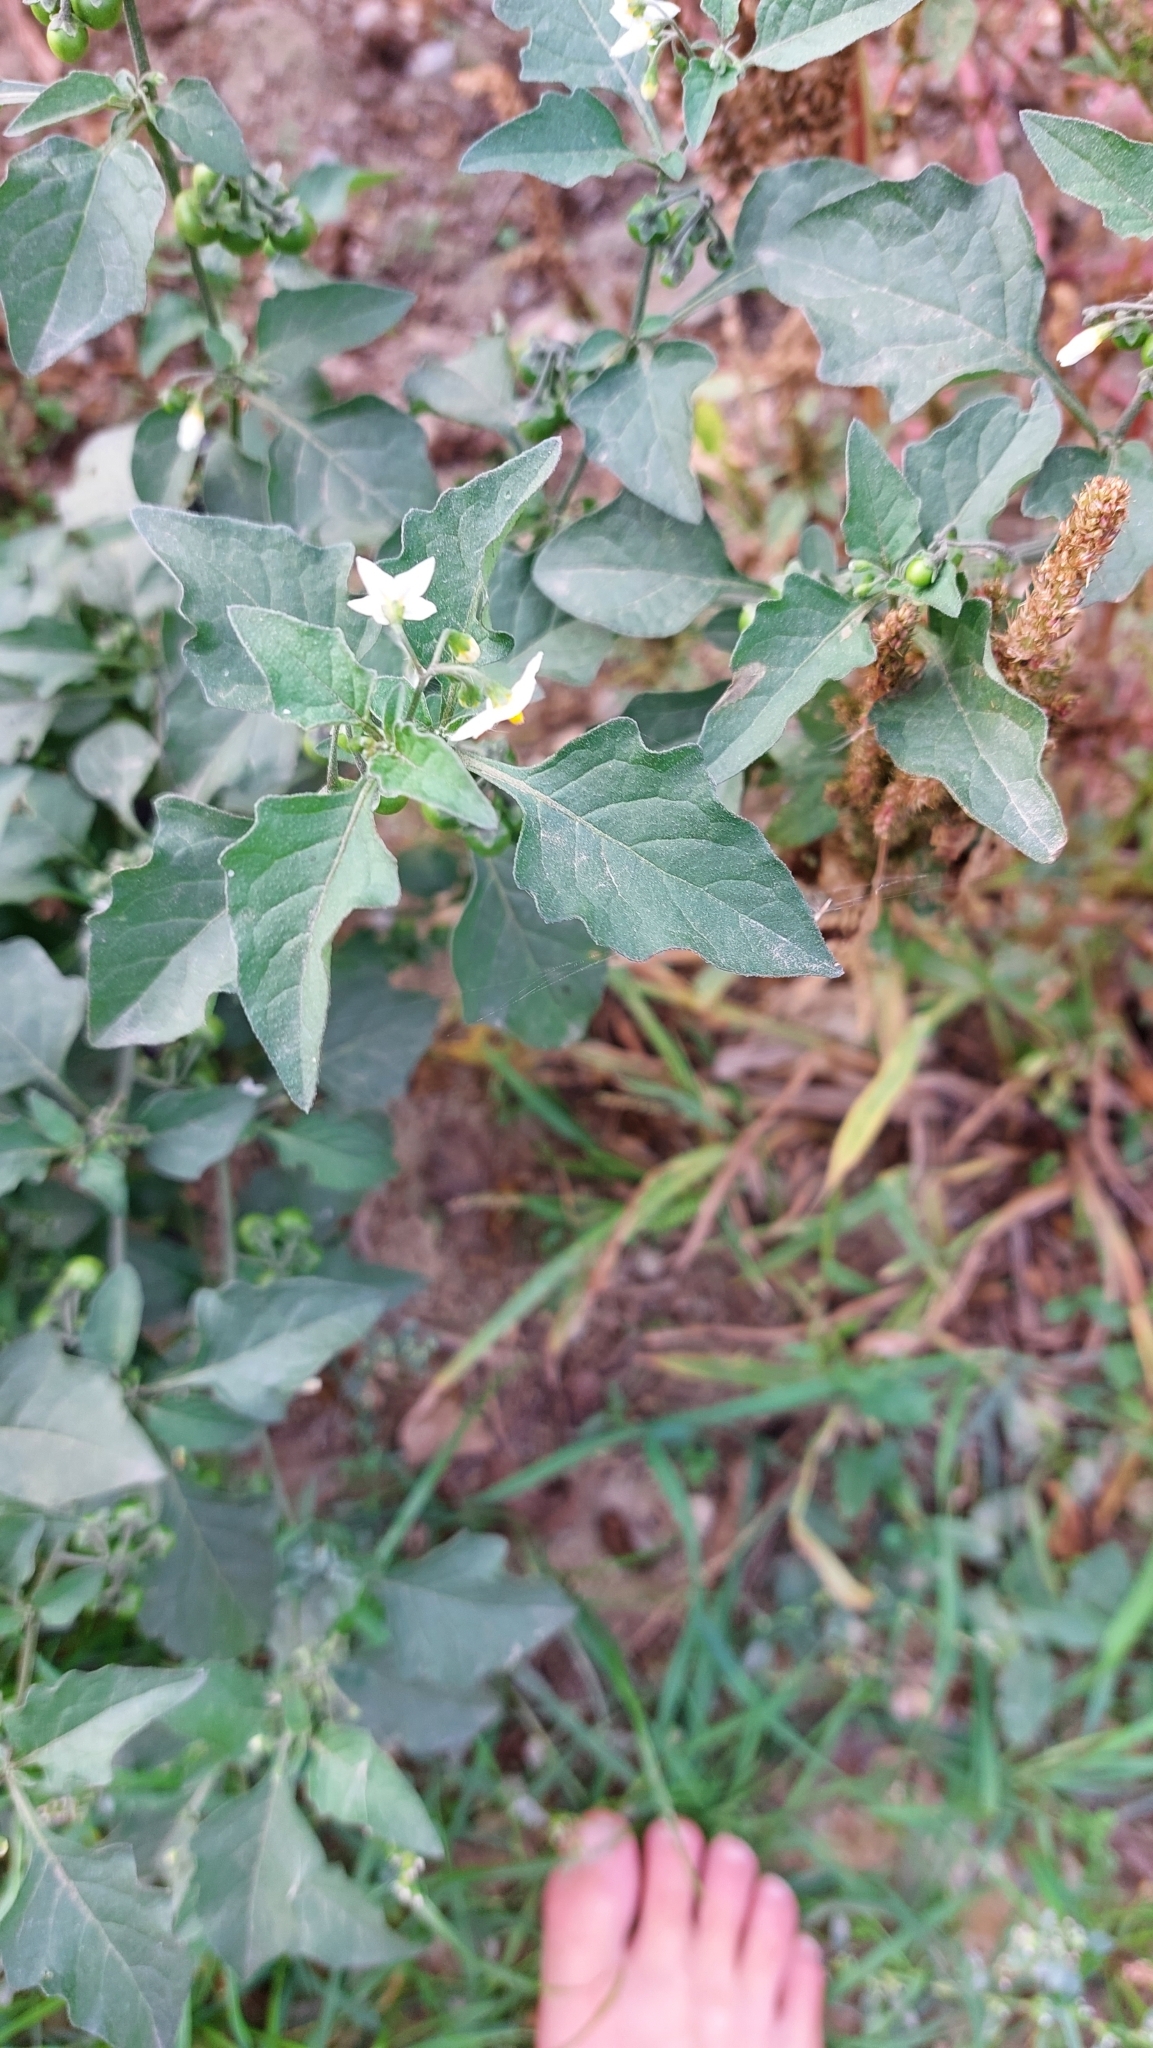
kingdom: Plantae
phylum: Tracheophyta
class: Magnoliopsida
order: Solanales
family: Solanaceae
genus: Solanum
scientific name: Solanum nigrum
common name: Black nightshade
